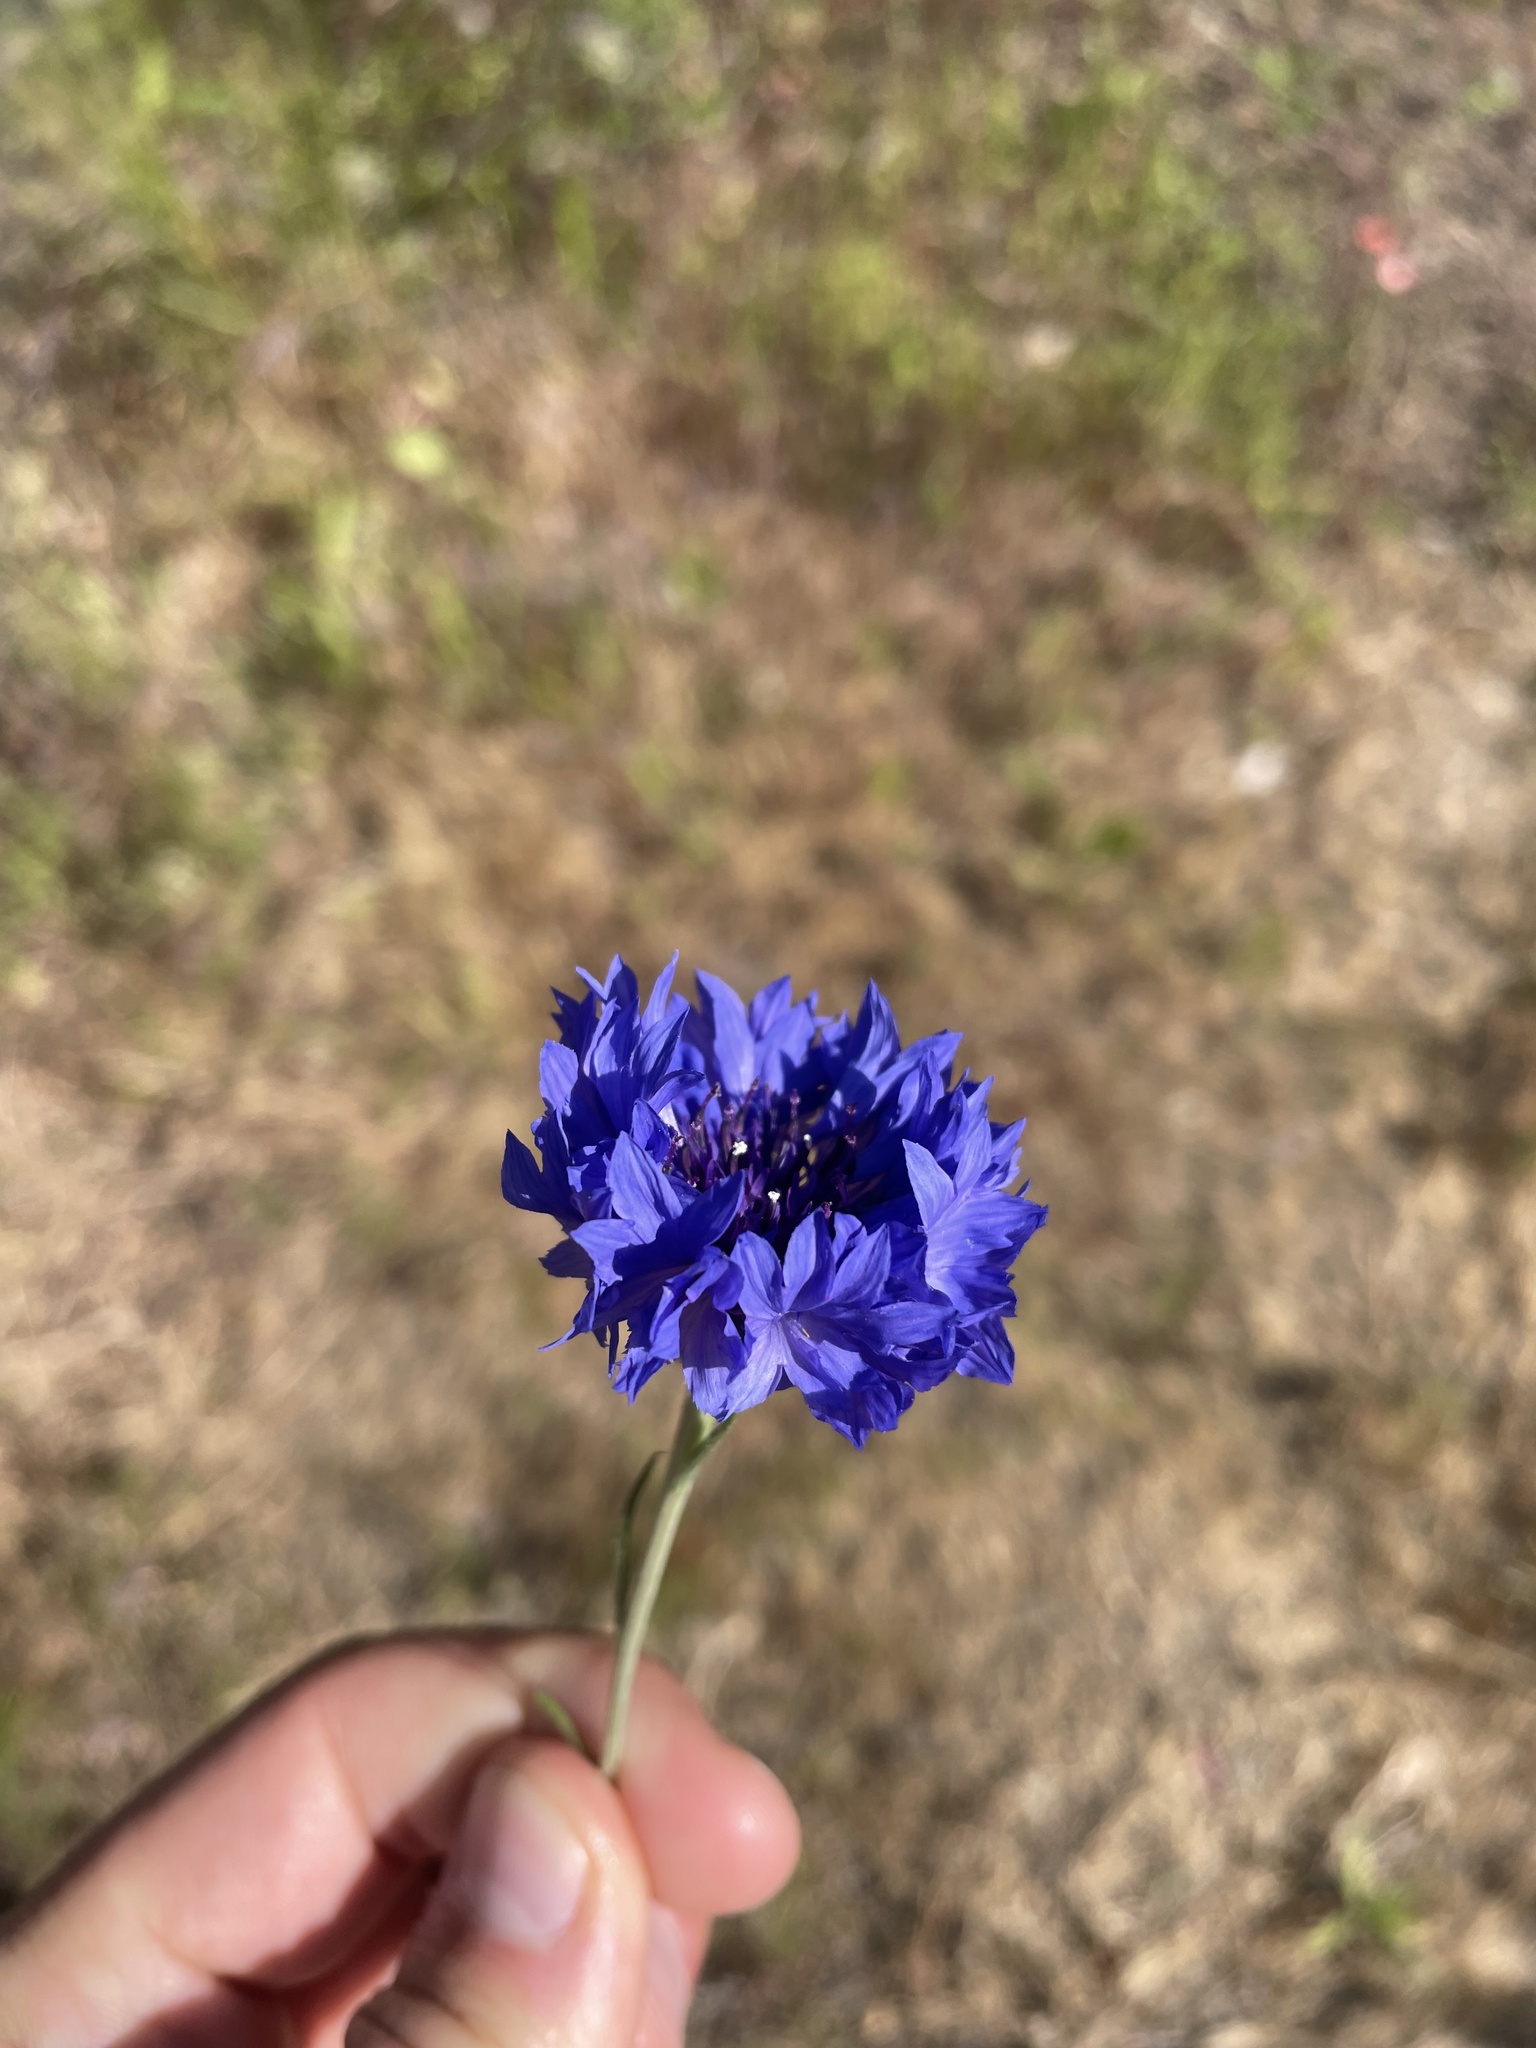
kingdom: Plantae
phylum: Tracheophyta
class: Magnoliopsida
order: Asterales
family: Asteraceae
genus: Centaurea
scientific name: Centaurea cyanus
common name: Cornflower
